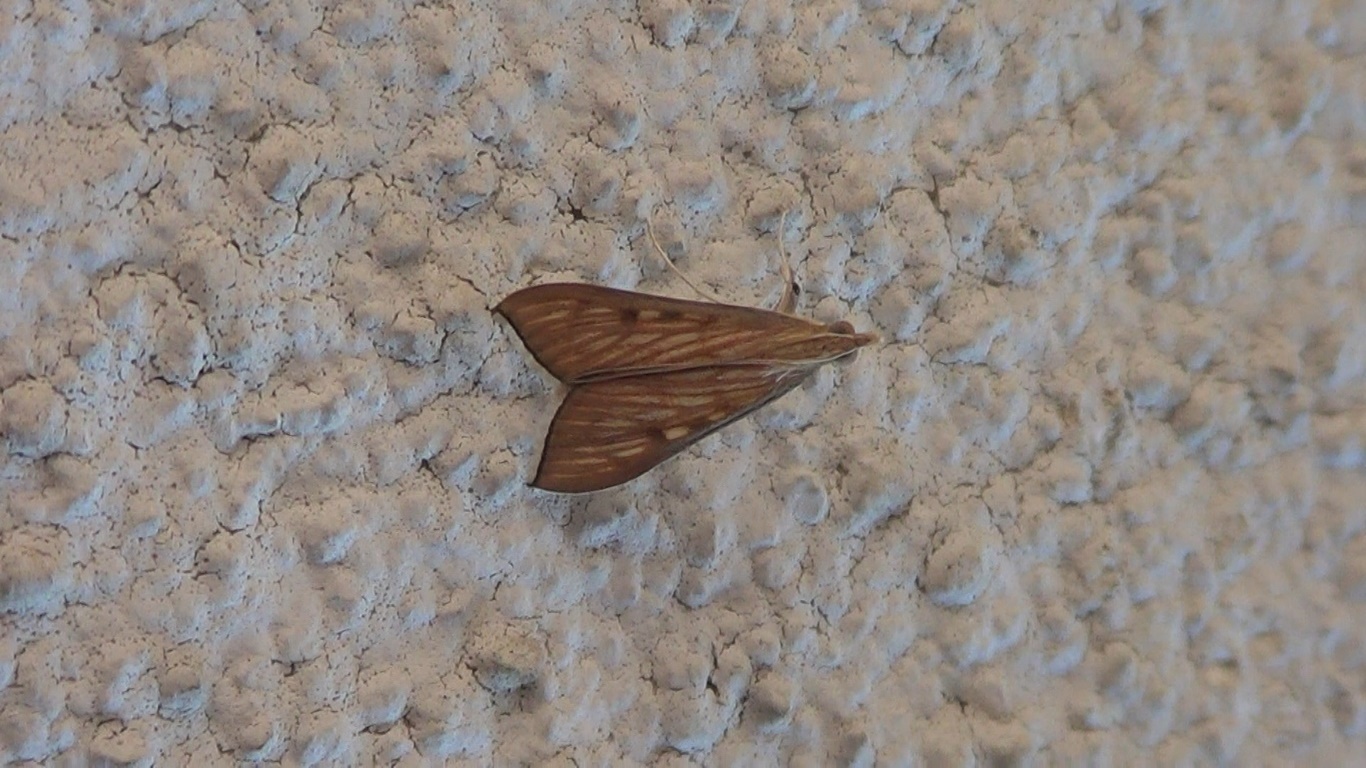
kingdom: Animalia
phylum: Arthropoda
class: Insecta
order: Lepidoptera
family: Crambidae
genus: Antigastra
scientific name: Antigastra catalaunalis
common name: Spanish dot
